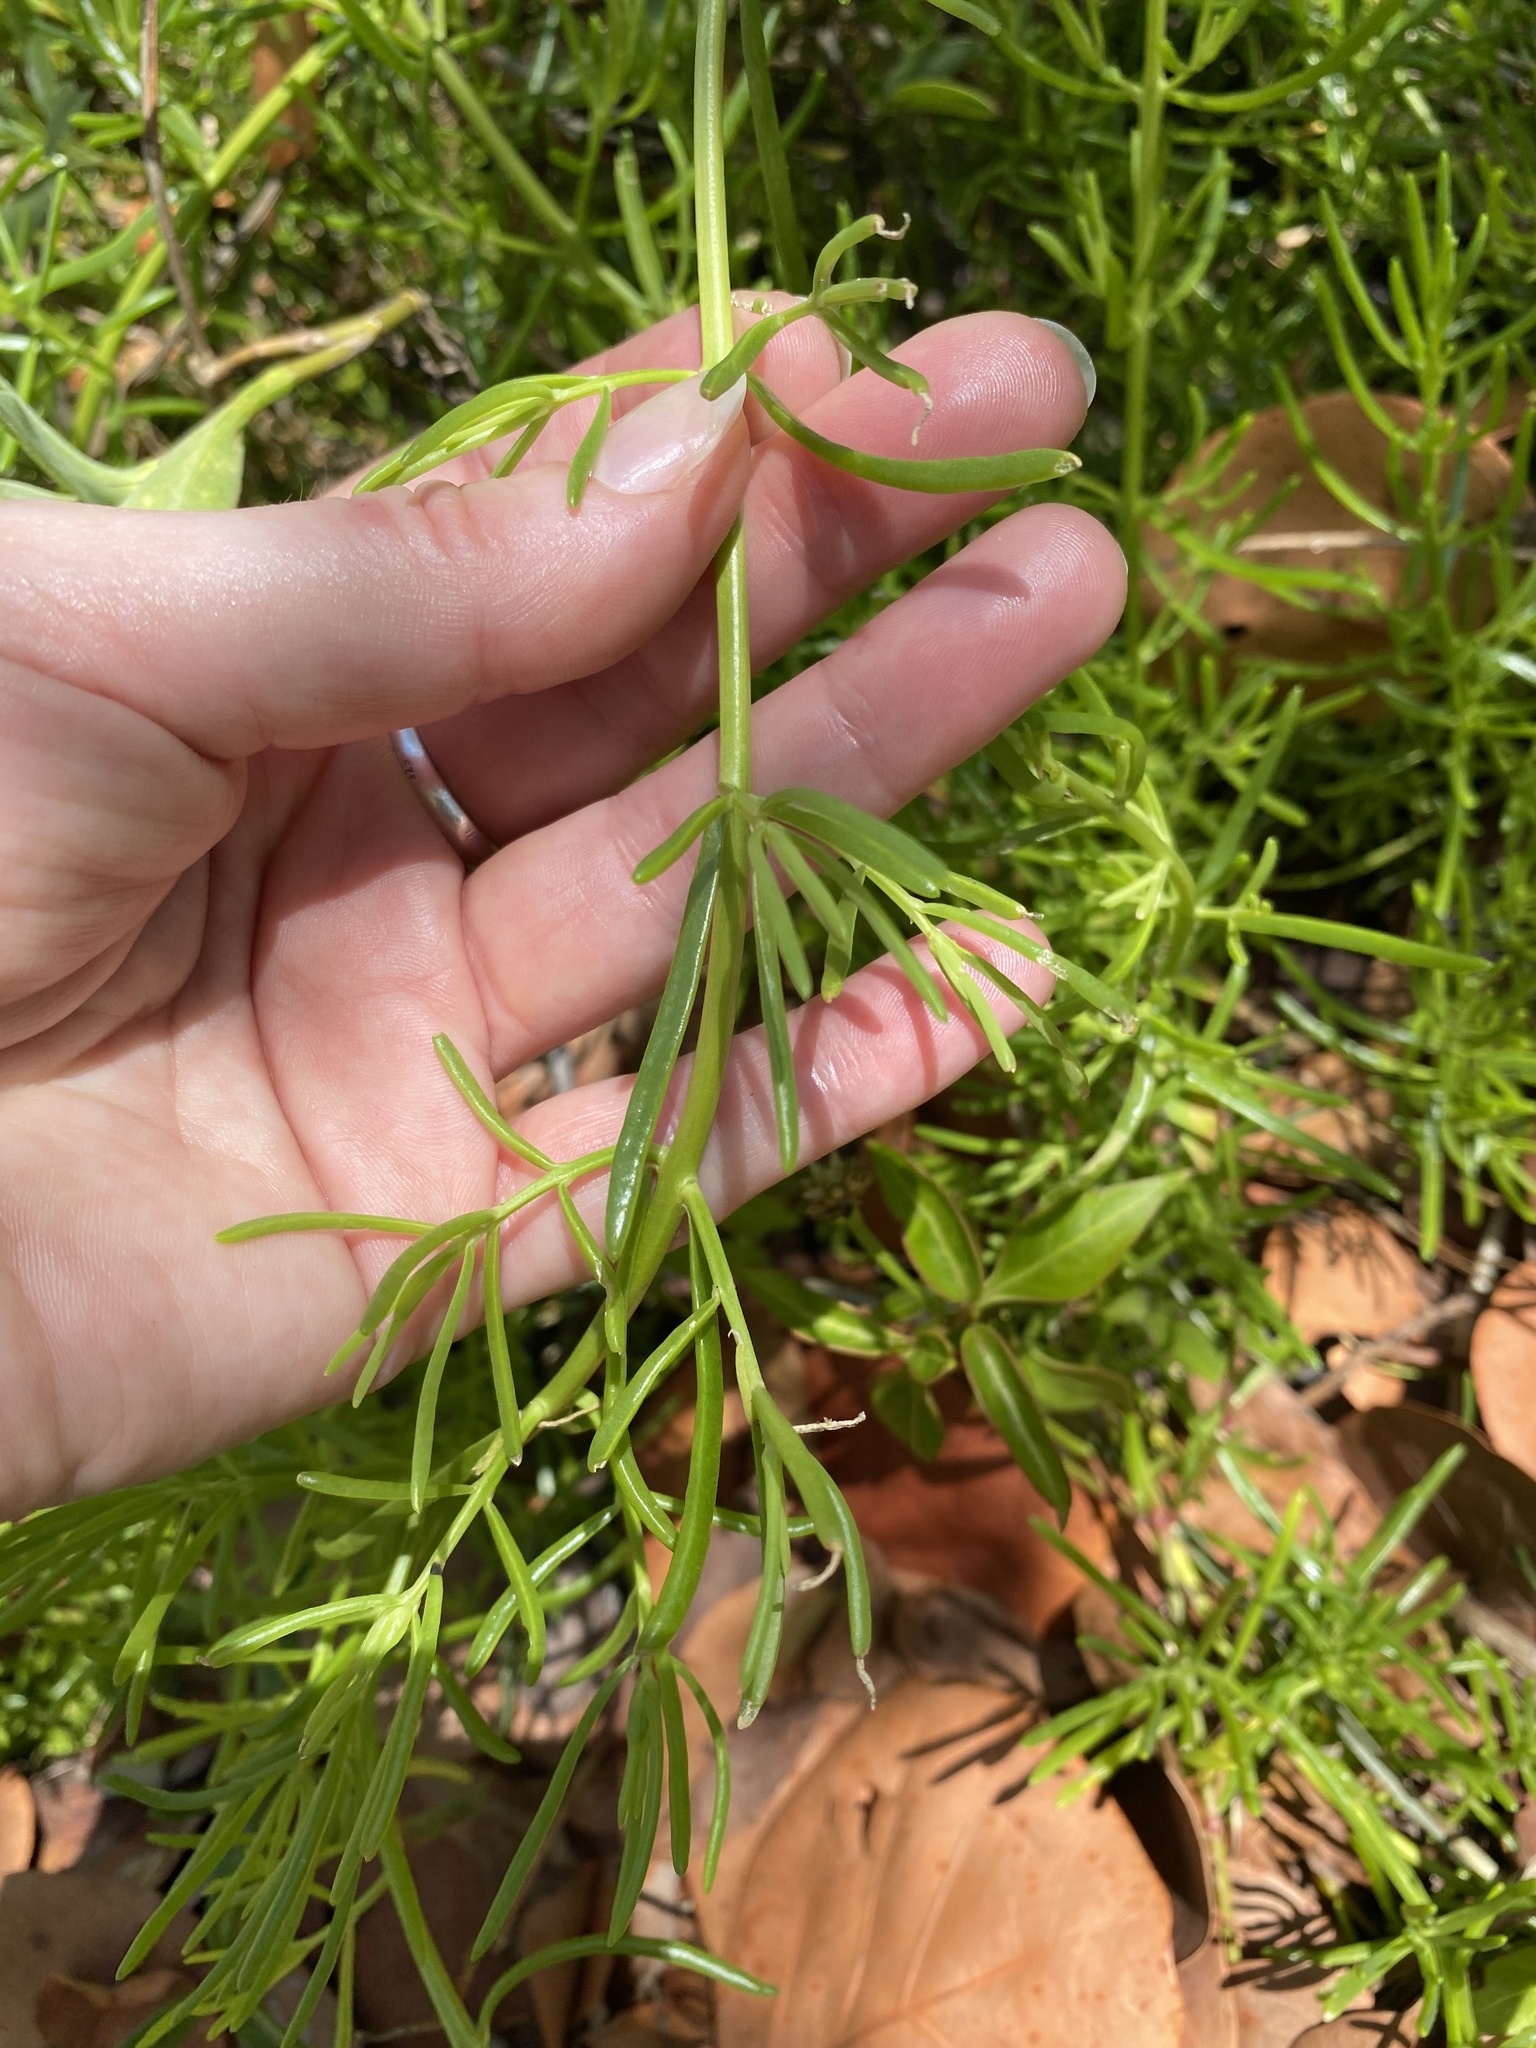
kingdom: Plantae
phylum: Tracheophyta
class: Magnoliopsida
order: Brassicales
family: Bataceae
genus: Batis
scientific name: Batis maritima
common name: Turtleweed
